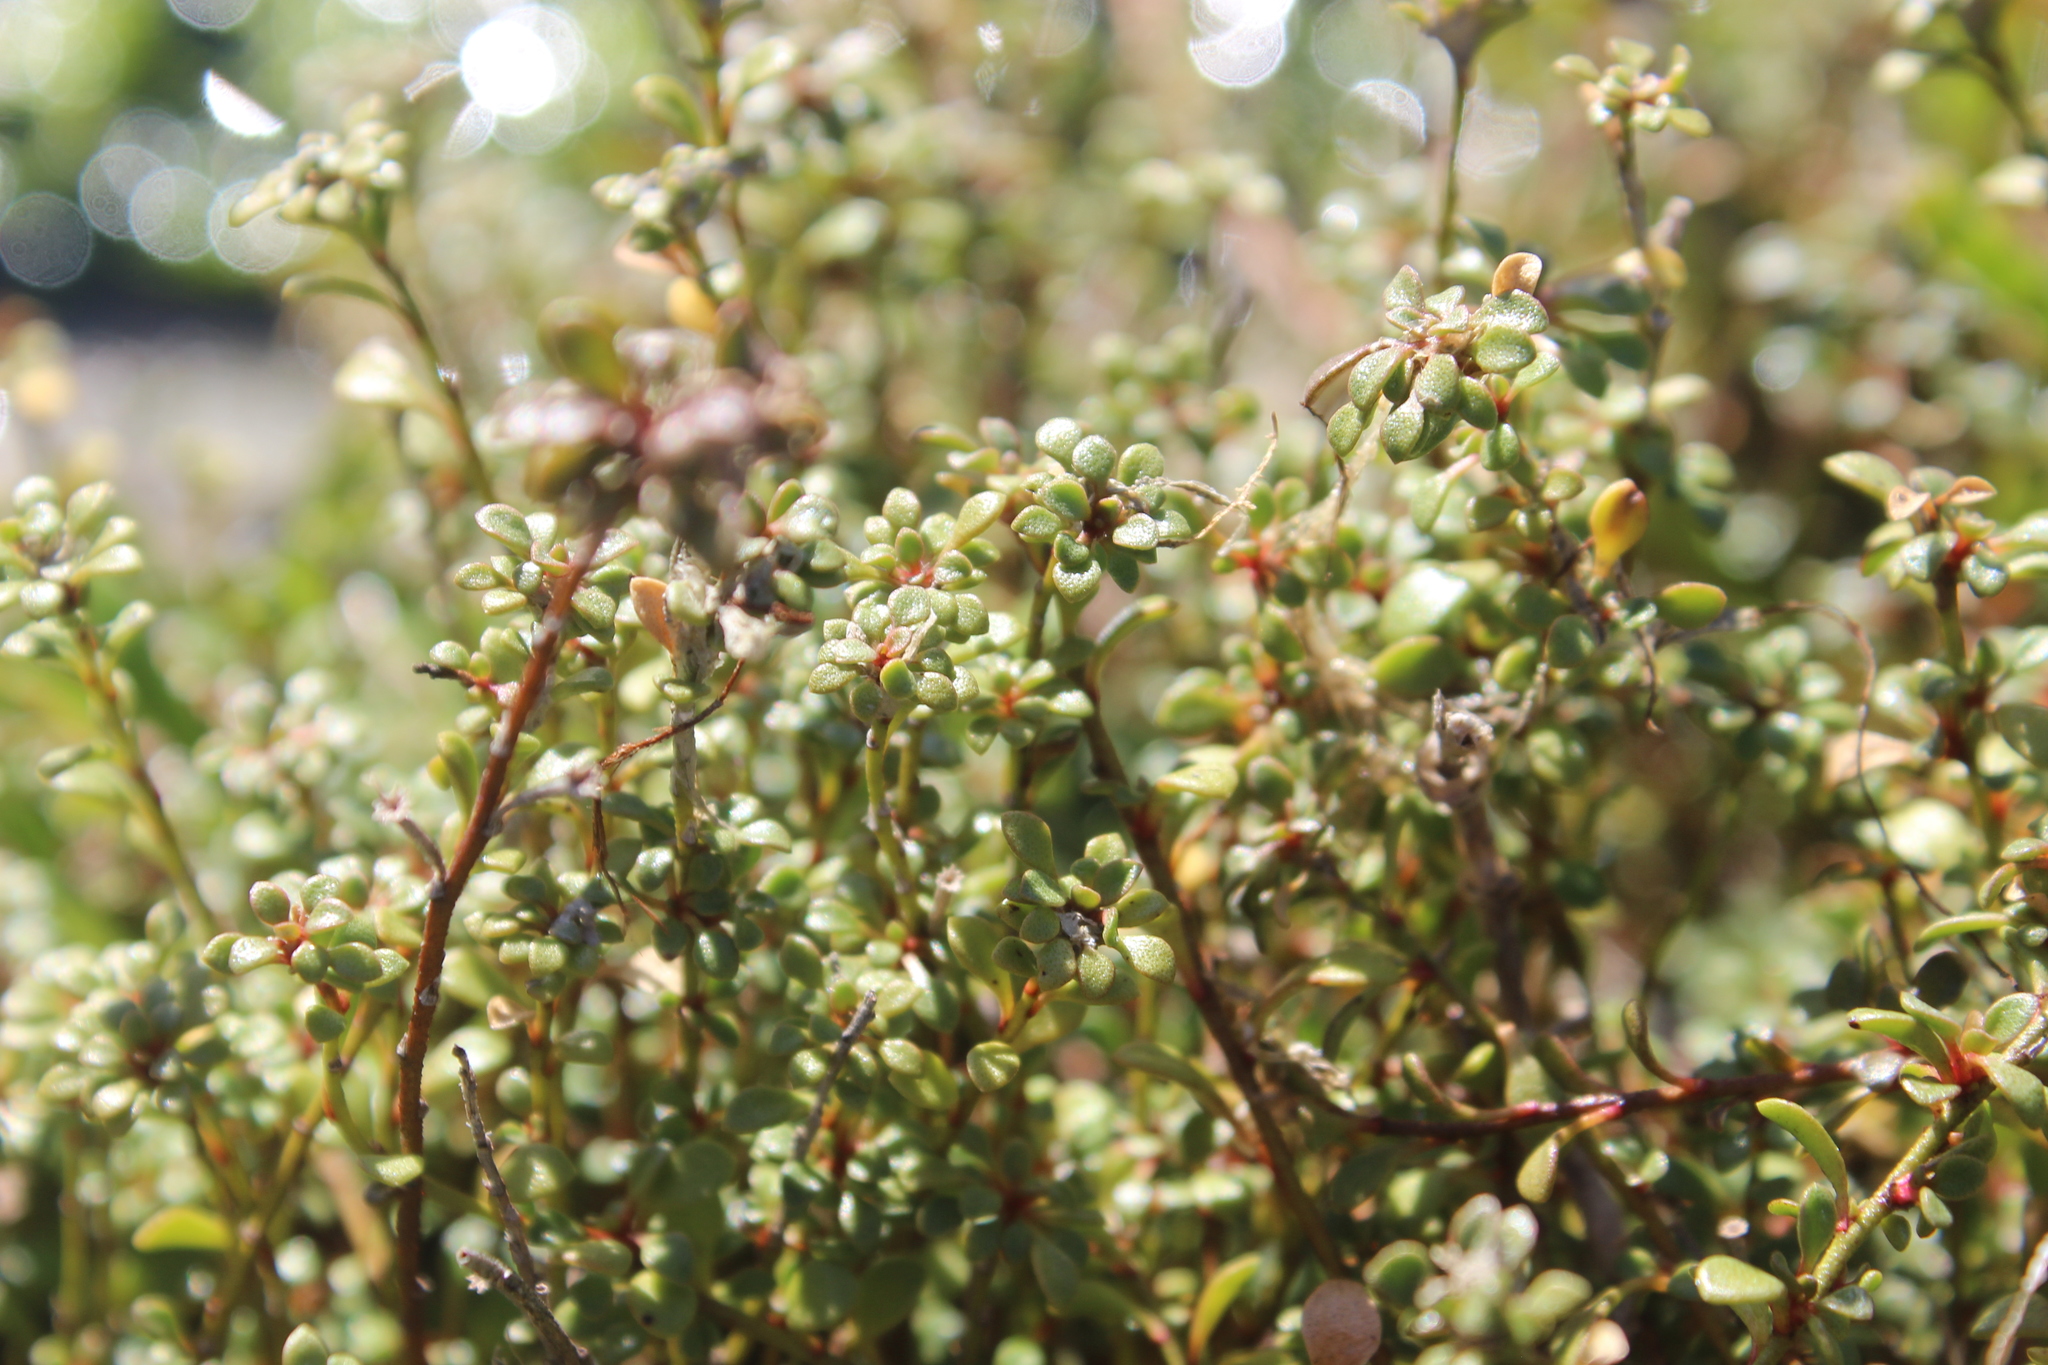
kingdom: Plantae
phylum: Tracheophyta
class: Magnoliopsida
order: Ericales
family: Primulaceae
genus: Samolus
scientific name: Samolus repens
